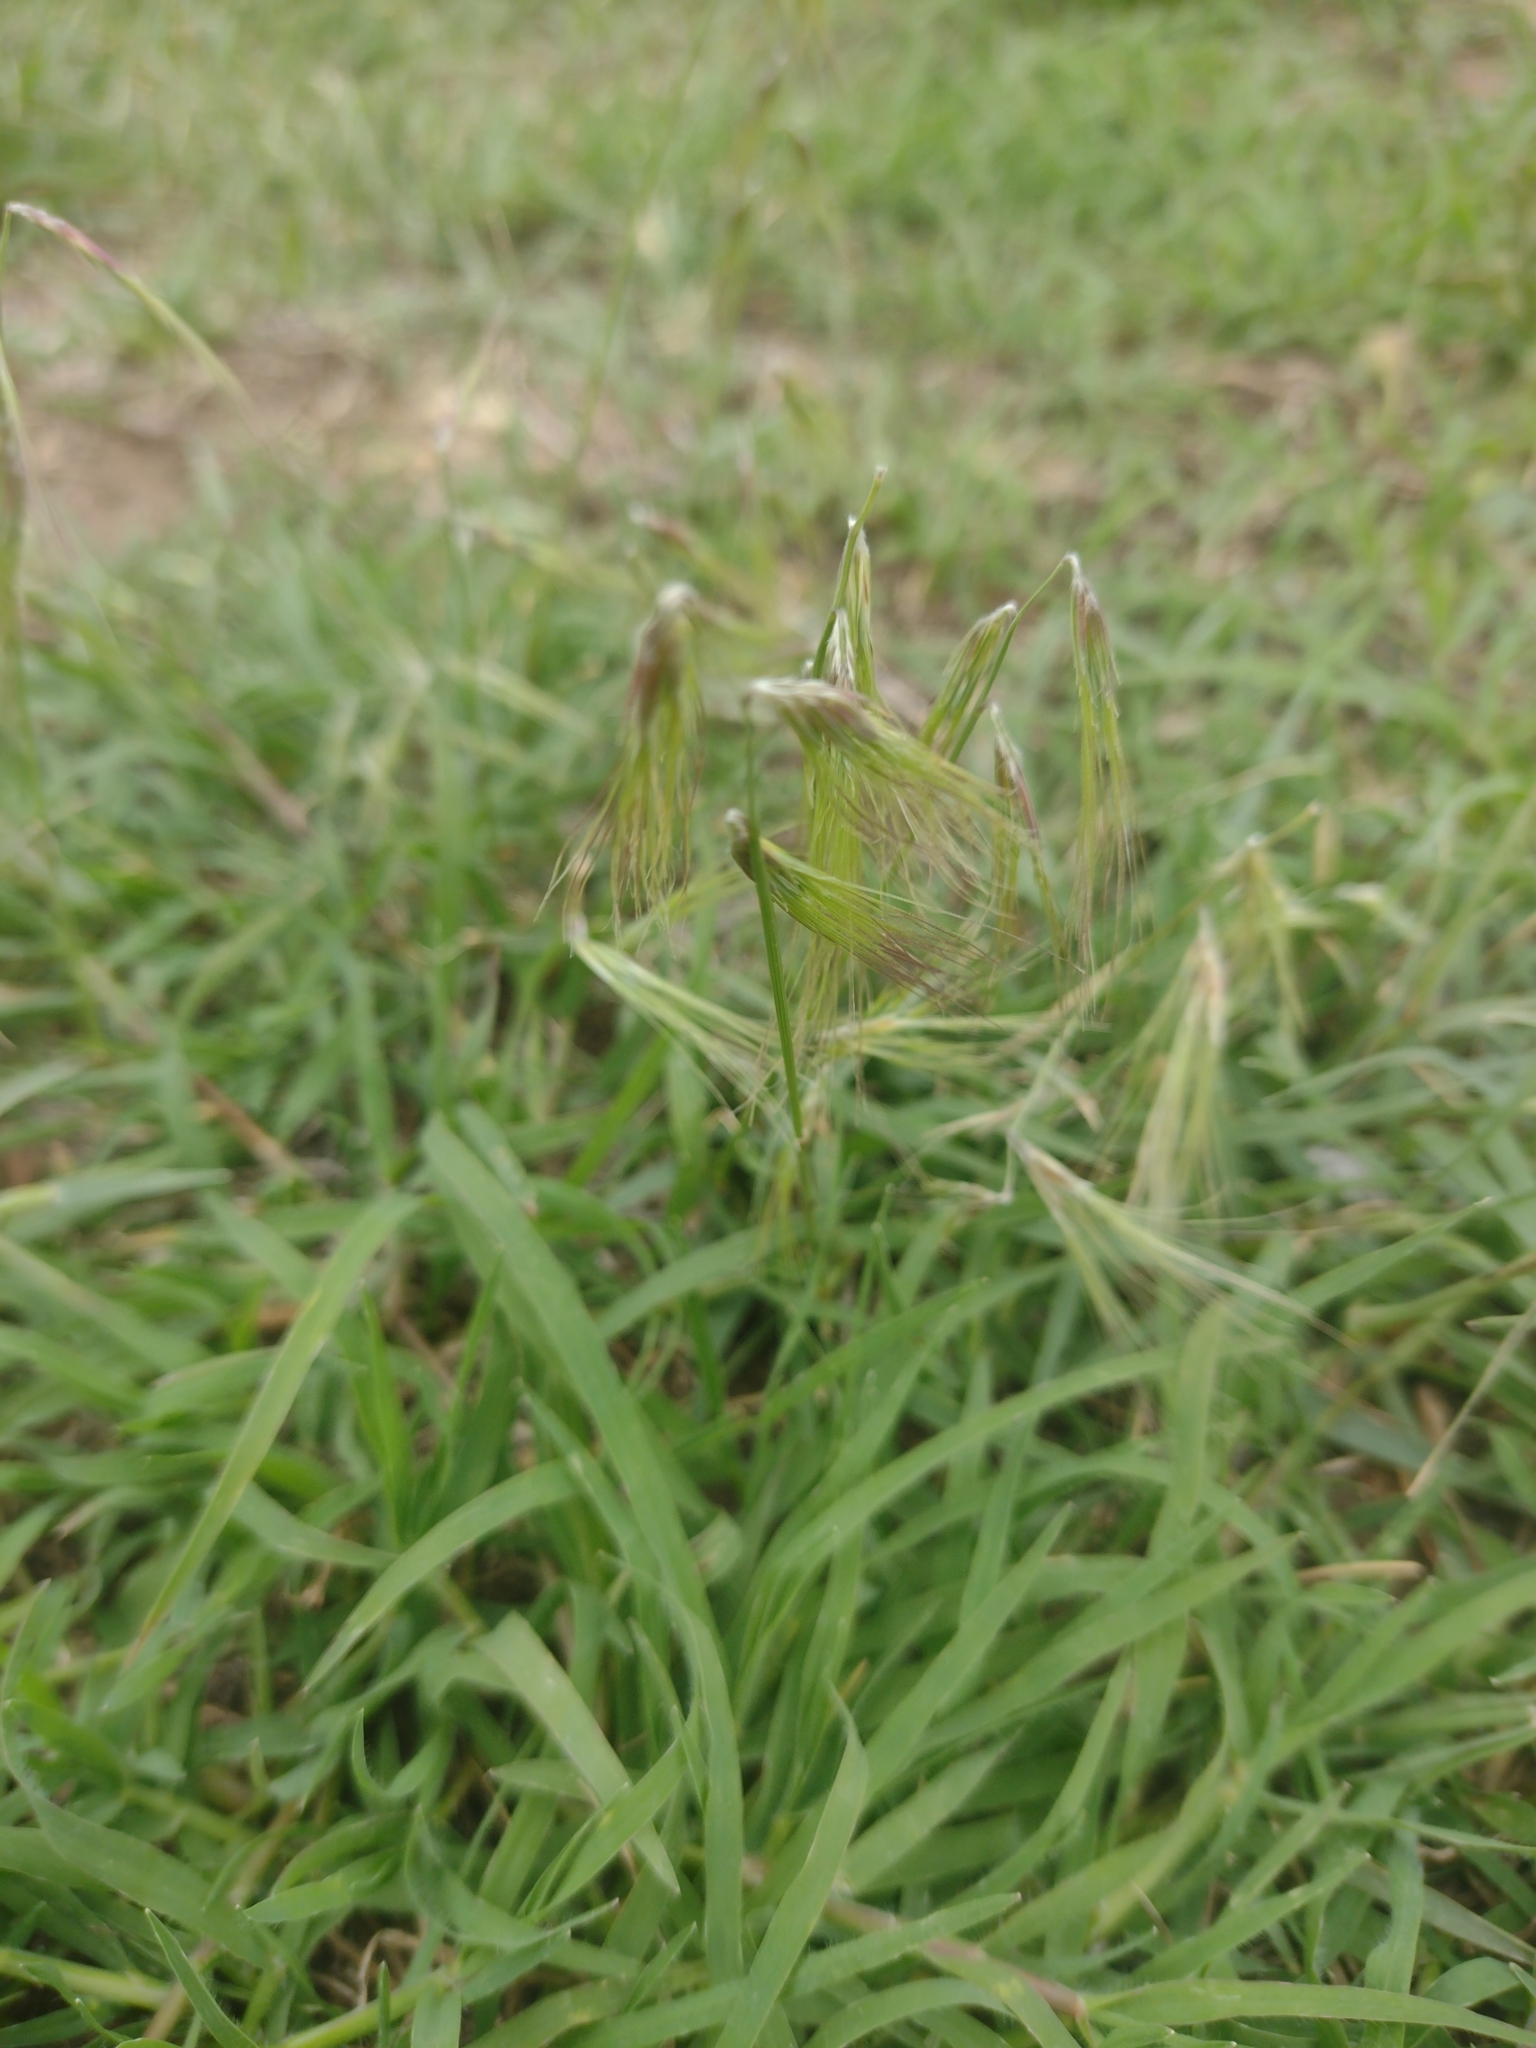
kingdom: Plantae
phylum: Tracheophyta
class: Liliopsida
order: Poales
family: Poaceae
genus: Bouteloua
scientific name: Bouteloua megapotamica
